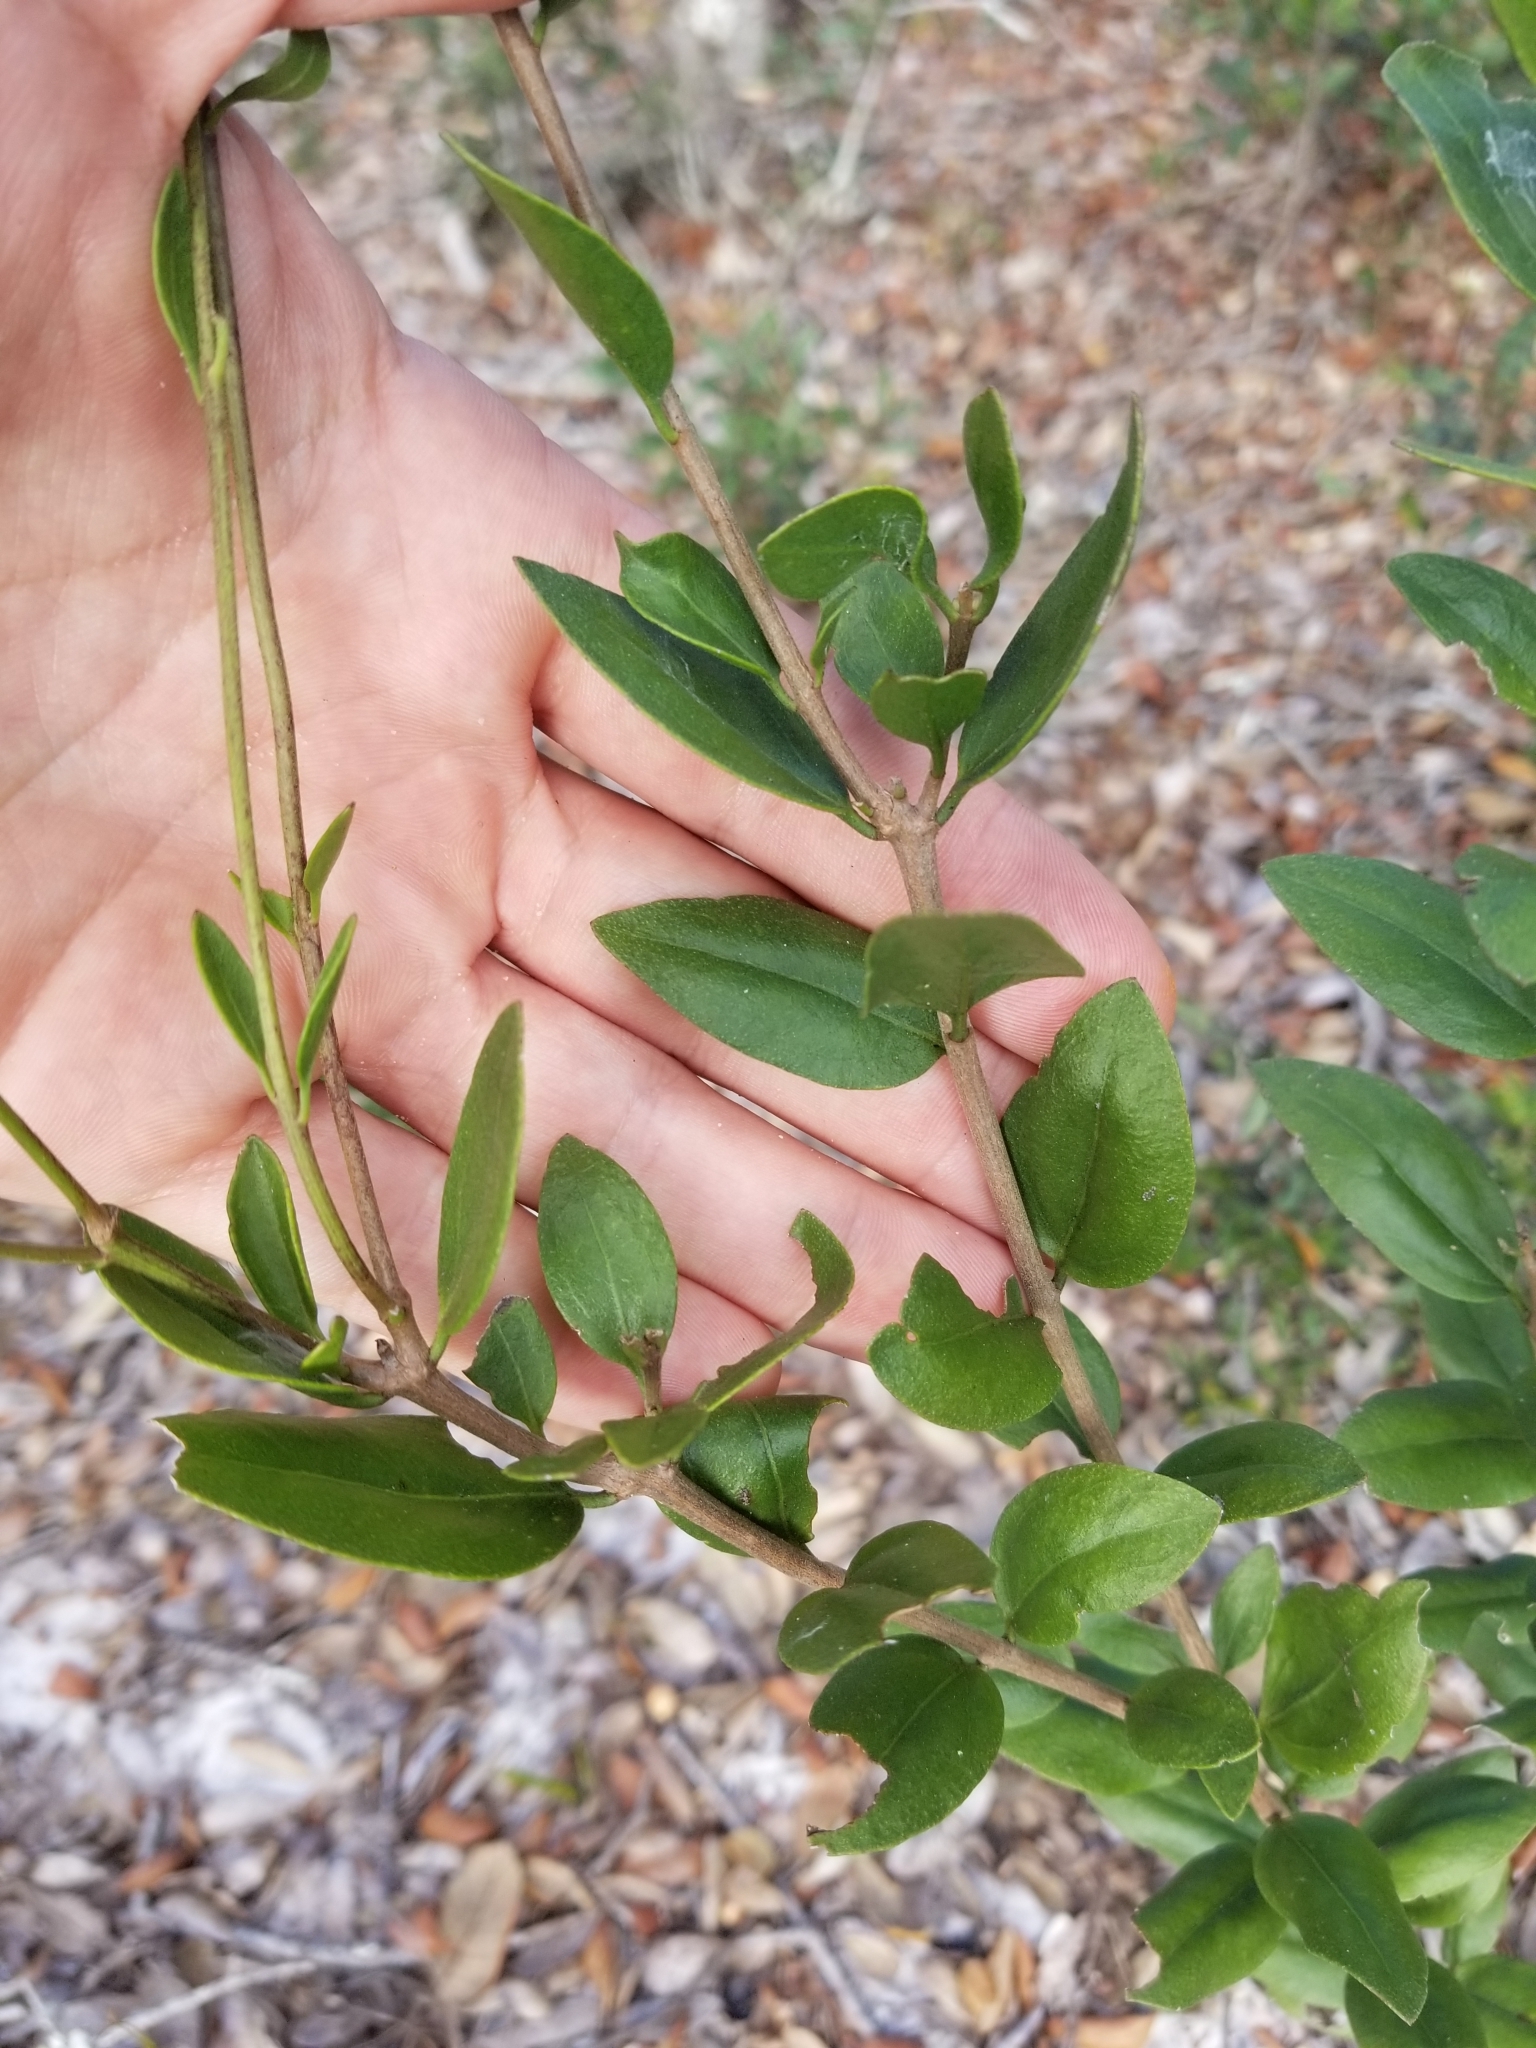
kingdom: Plantae
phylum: Tracheophyta
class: Magnoliopsida
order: Asterales
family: Asteraceae
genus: Palafoxia
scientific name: Palafoxia feayi
